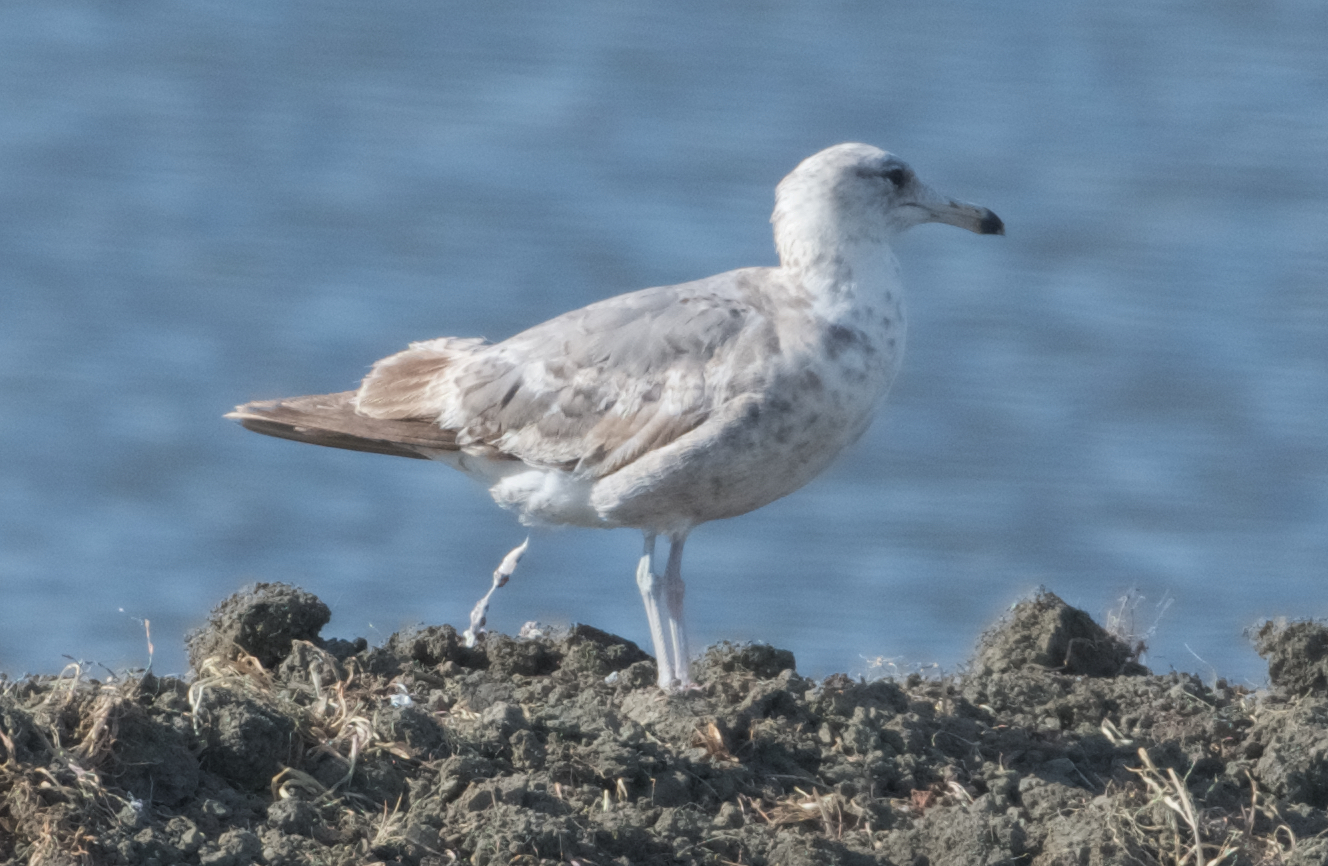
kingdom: Animalia
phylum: Chordata
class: Aves
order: Charadriiformes
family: Laridae
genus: Larus
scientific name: Larus californicus
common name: California gull
